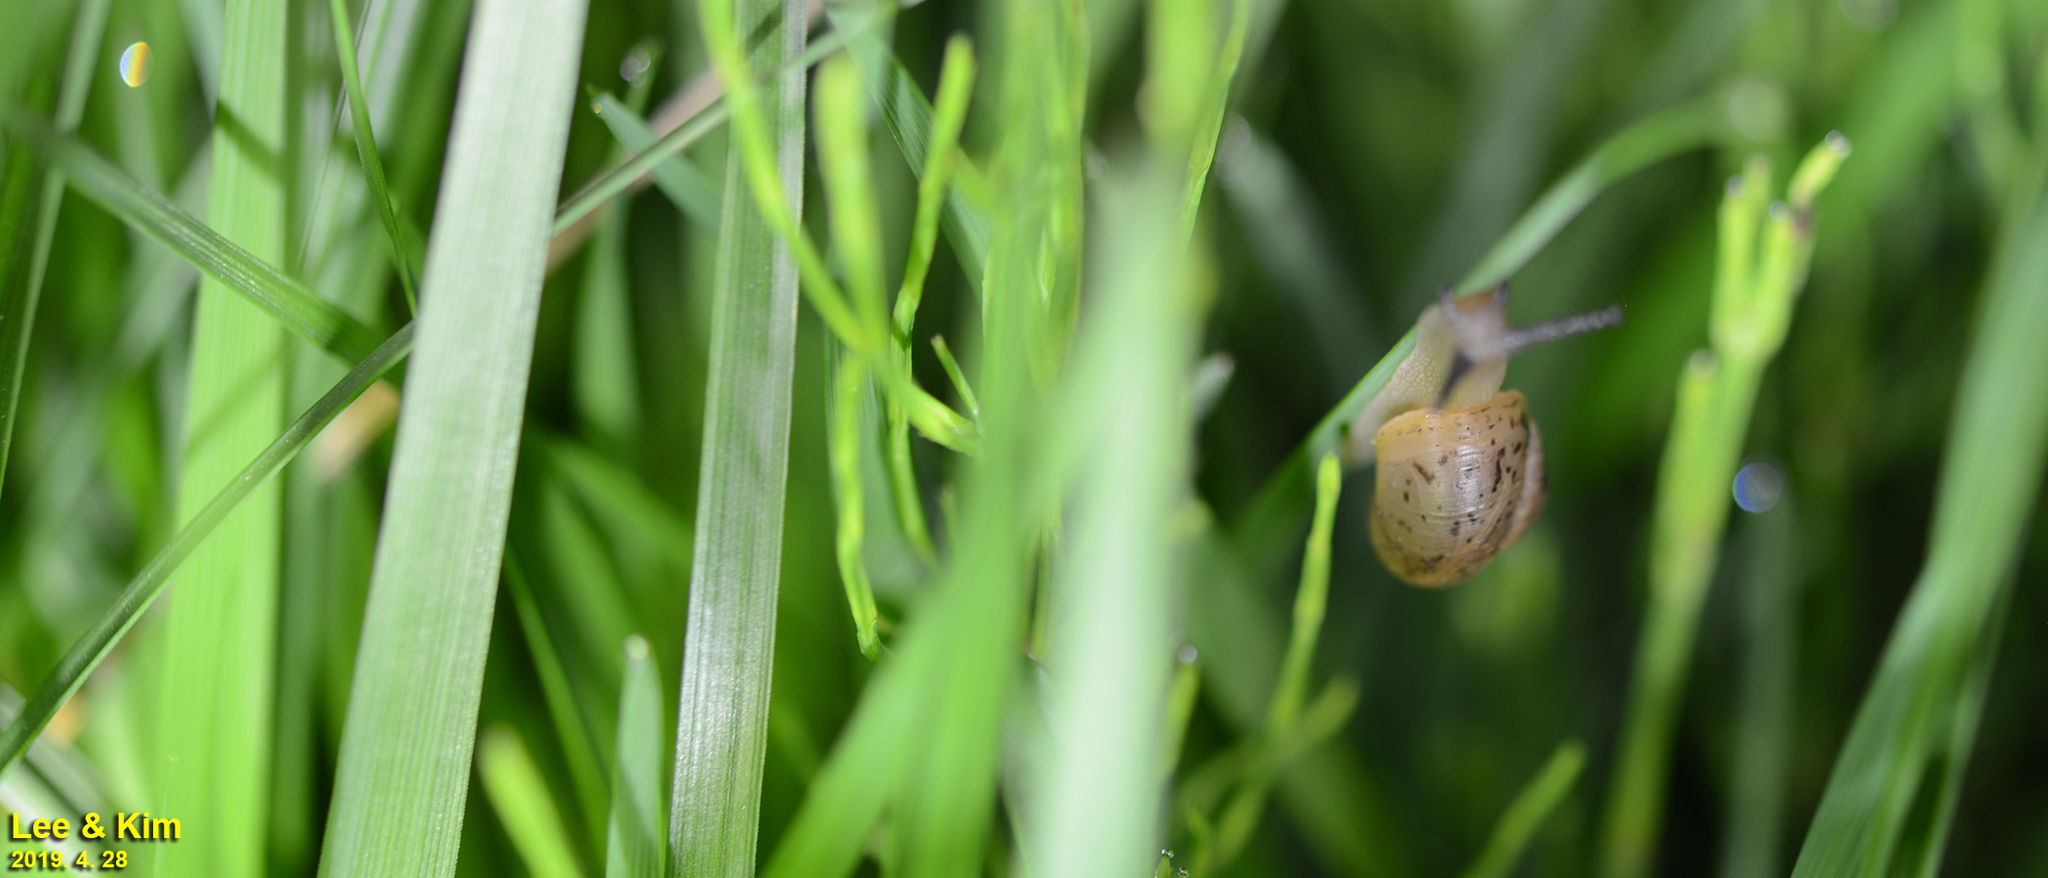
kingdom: Animalia
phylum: Mollusca
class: Gastropoda
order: Stylommatophora
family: Camaenidae
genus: Acusta
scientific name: Acusta redfieldi
